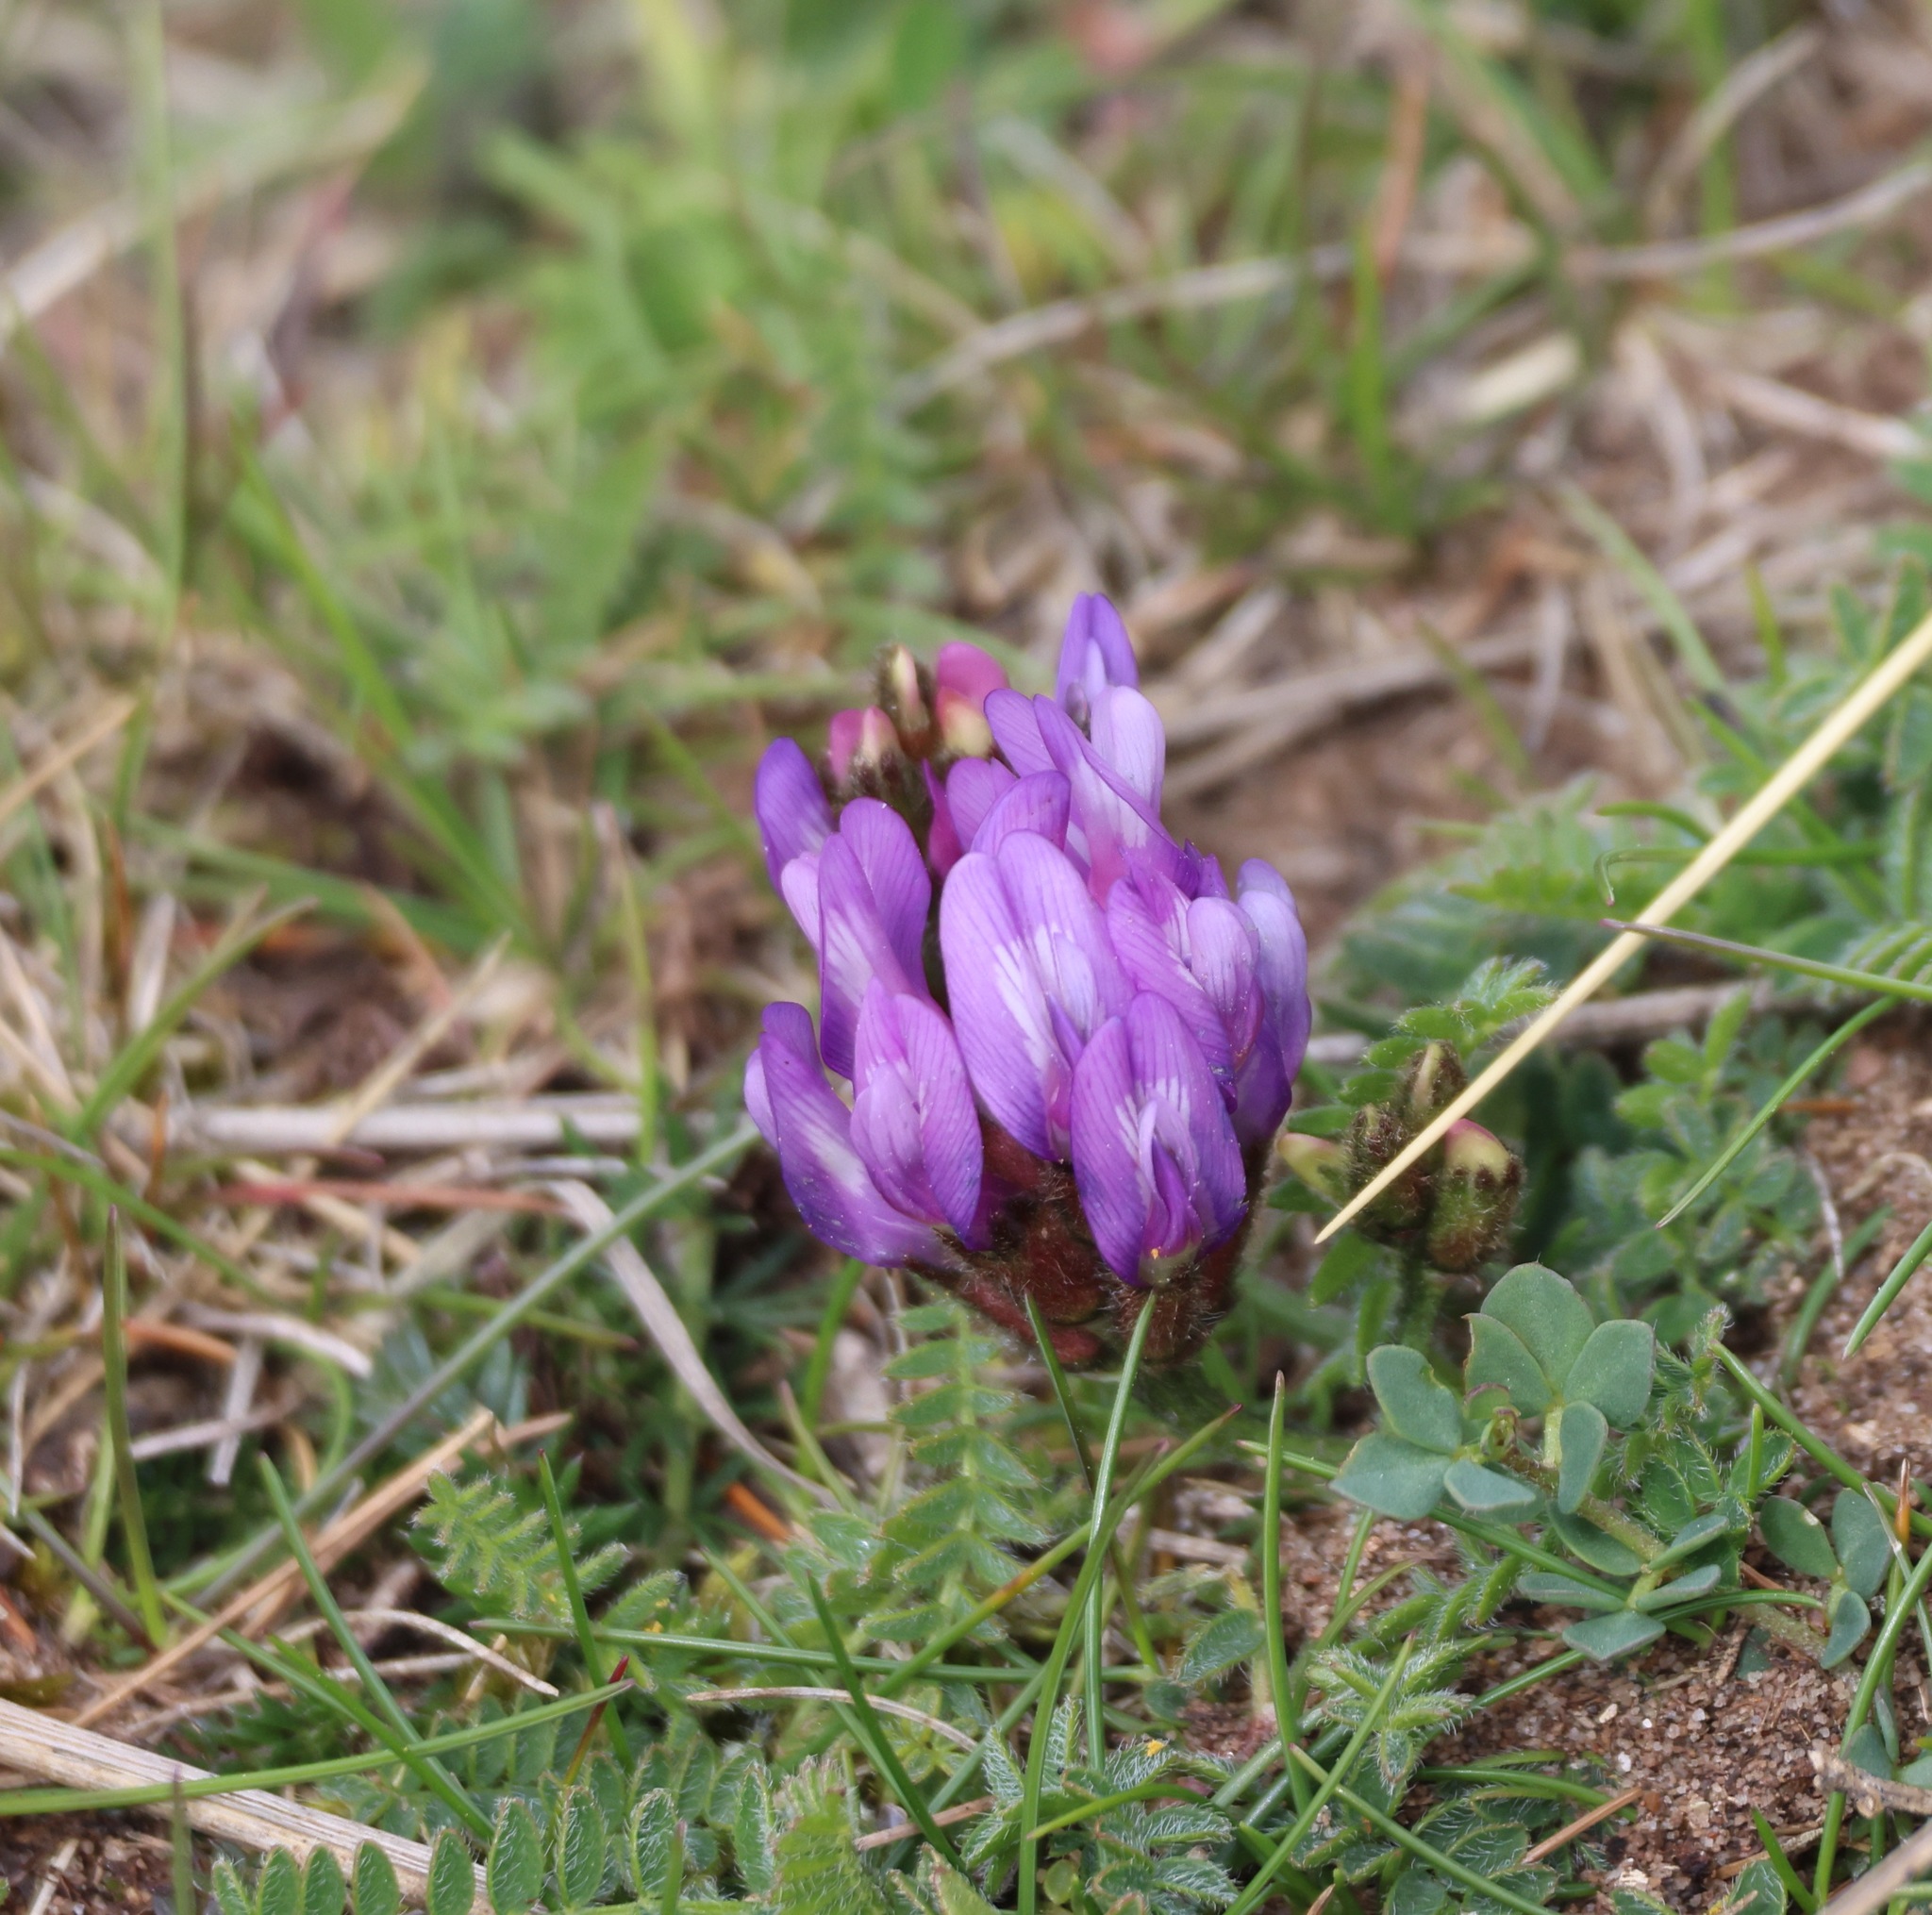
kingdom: Plantae
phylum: Tracheophyta
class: Magnoliopsida
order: Fabales
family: Fabaceae
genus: Astragalus
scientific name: Astragalus danicus
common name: Purple milk-vetch
